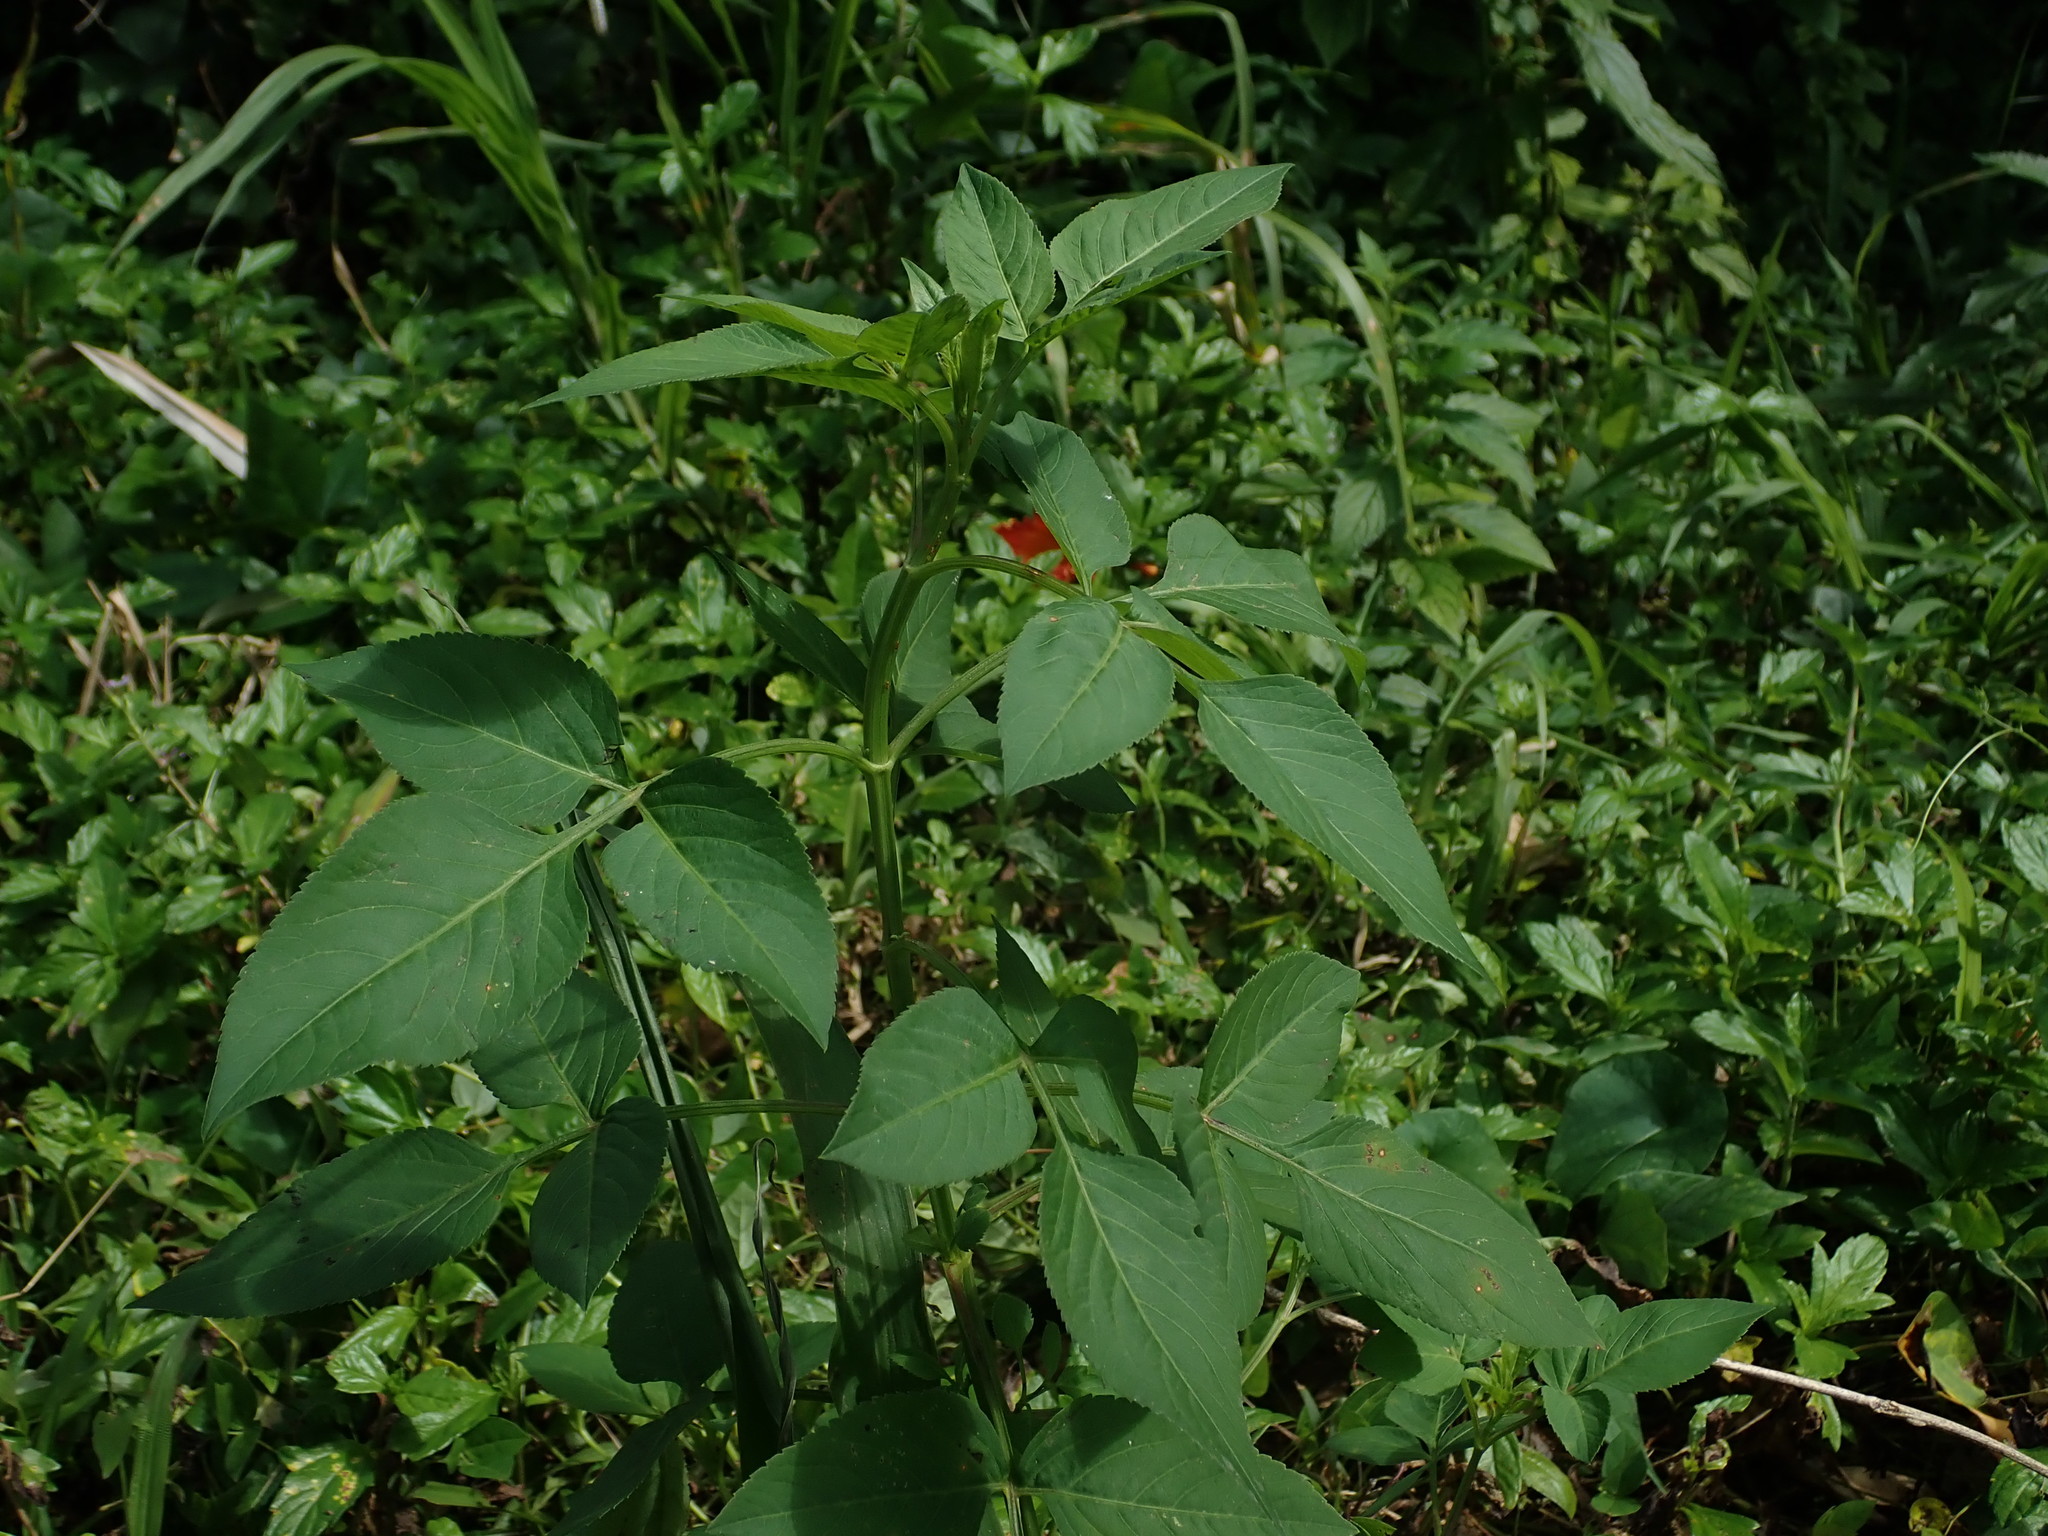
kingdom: Plantae
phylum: Tracheophyta
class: Magnoliopsida
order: Asterales
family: Asteraceae
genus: Bidens
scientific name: Bidens alba
